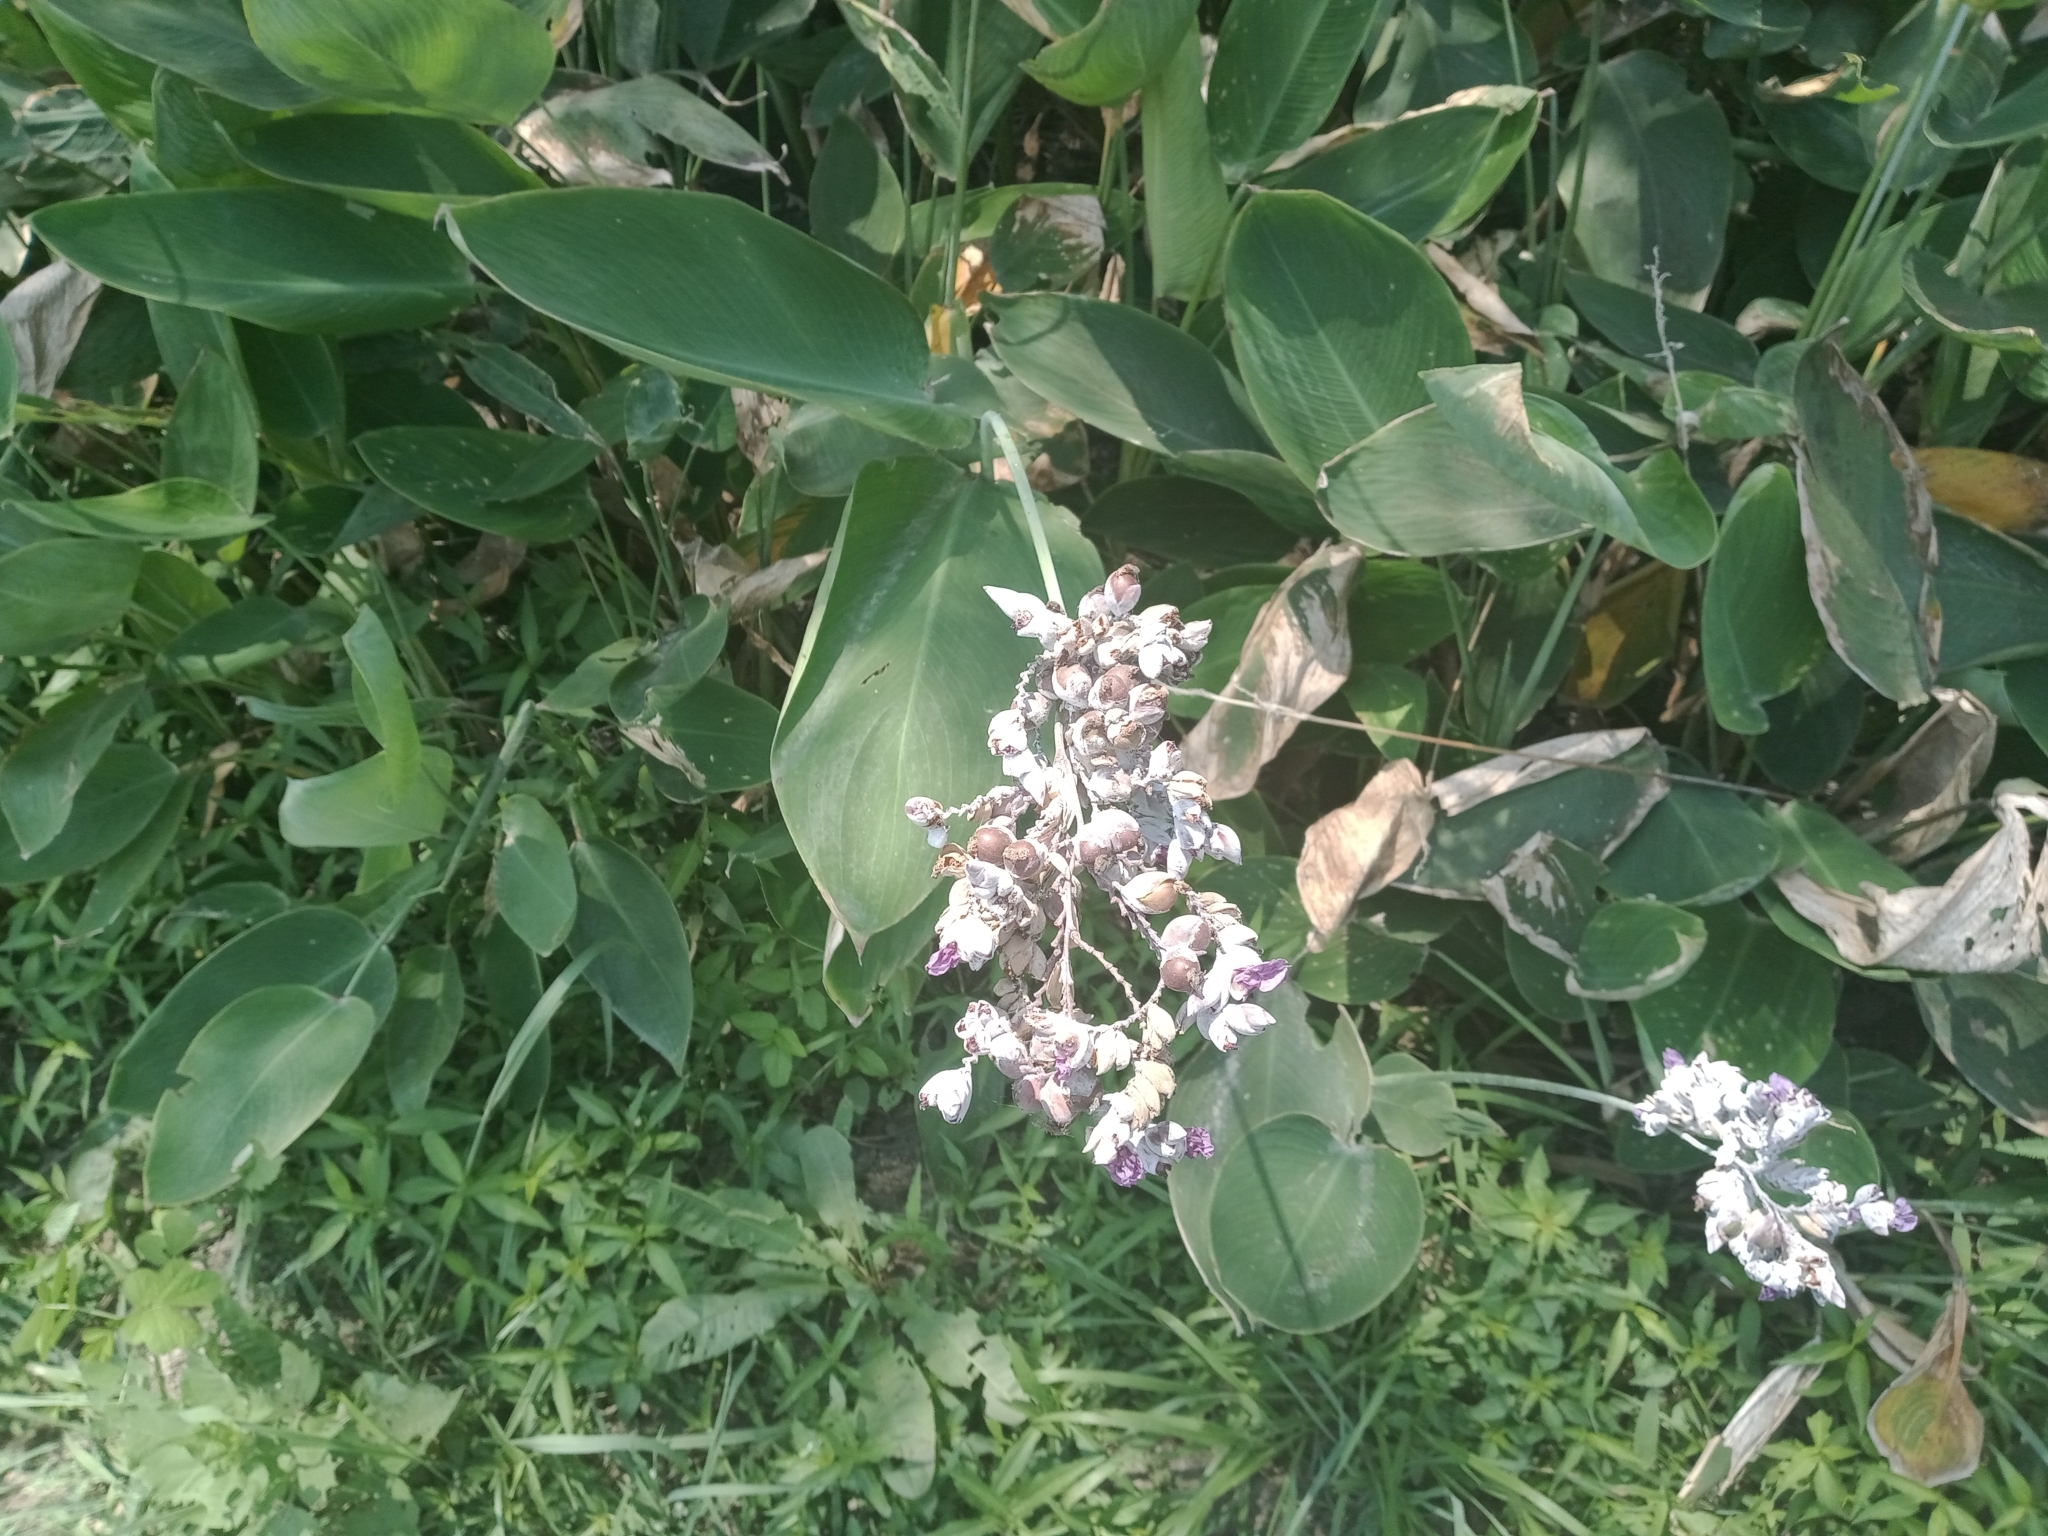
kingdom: Plantae
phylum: Tracheophyta
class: Liliopsida
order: Zingiberales
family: Marantaceae
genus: Thalia
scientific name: Thalia dealbata
